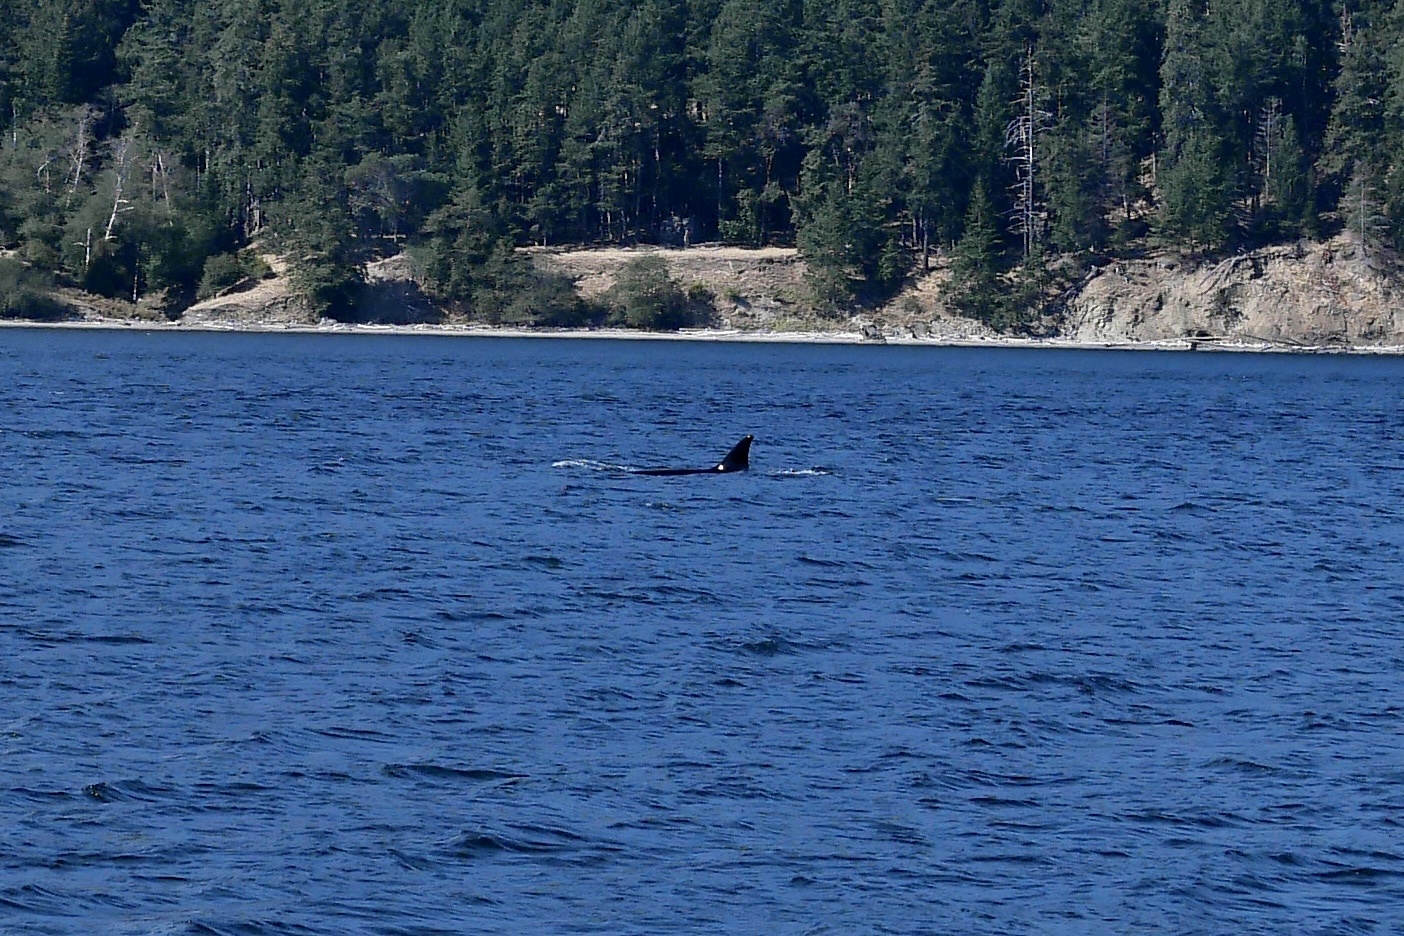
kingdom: Animalia
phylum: Chordata
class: Mammalia
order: Cetacea
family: Delphinidae
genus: Orcinus
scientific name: Orcinus orca
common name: Killer whale
